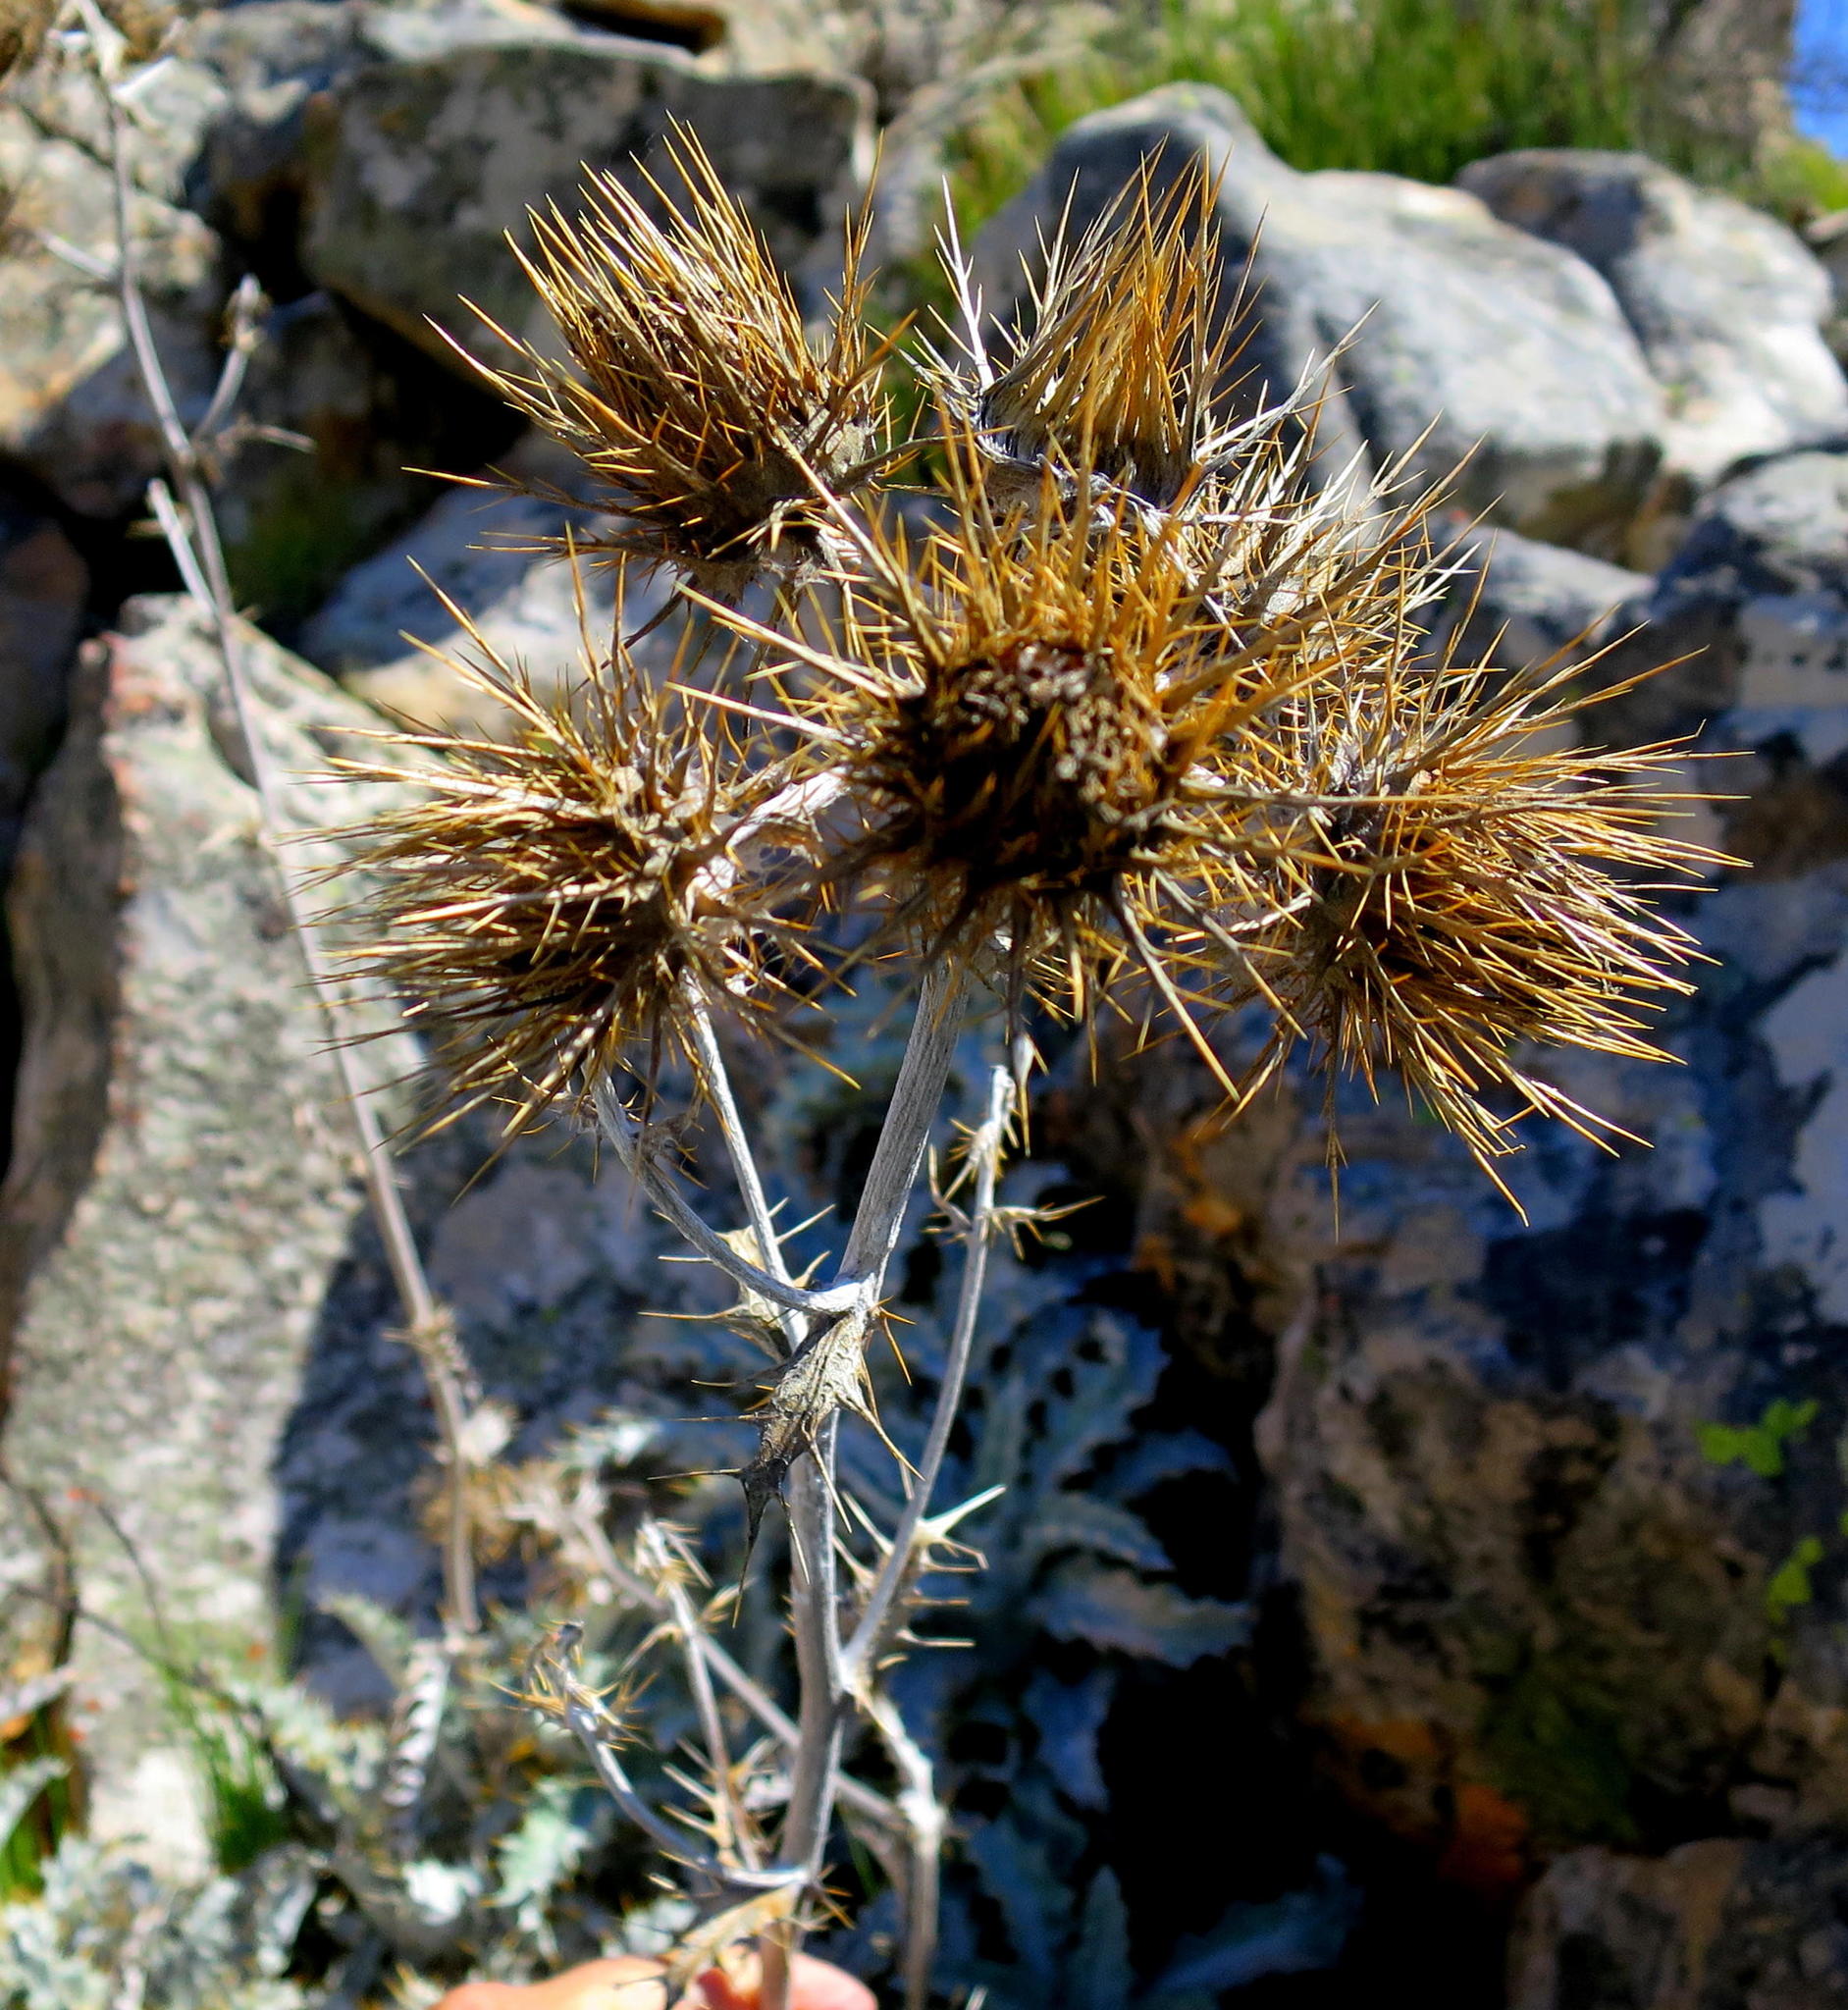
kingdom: Plantae
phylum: Tracheophyta
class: Magnoliopsida
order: Asterales
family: Asteraceae
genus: Berkheya
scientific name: Berkheya francisci
